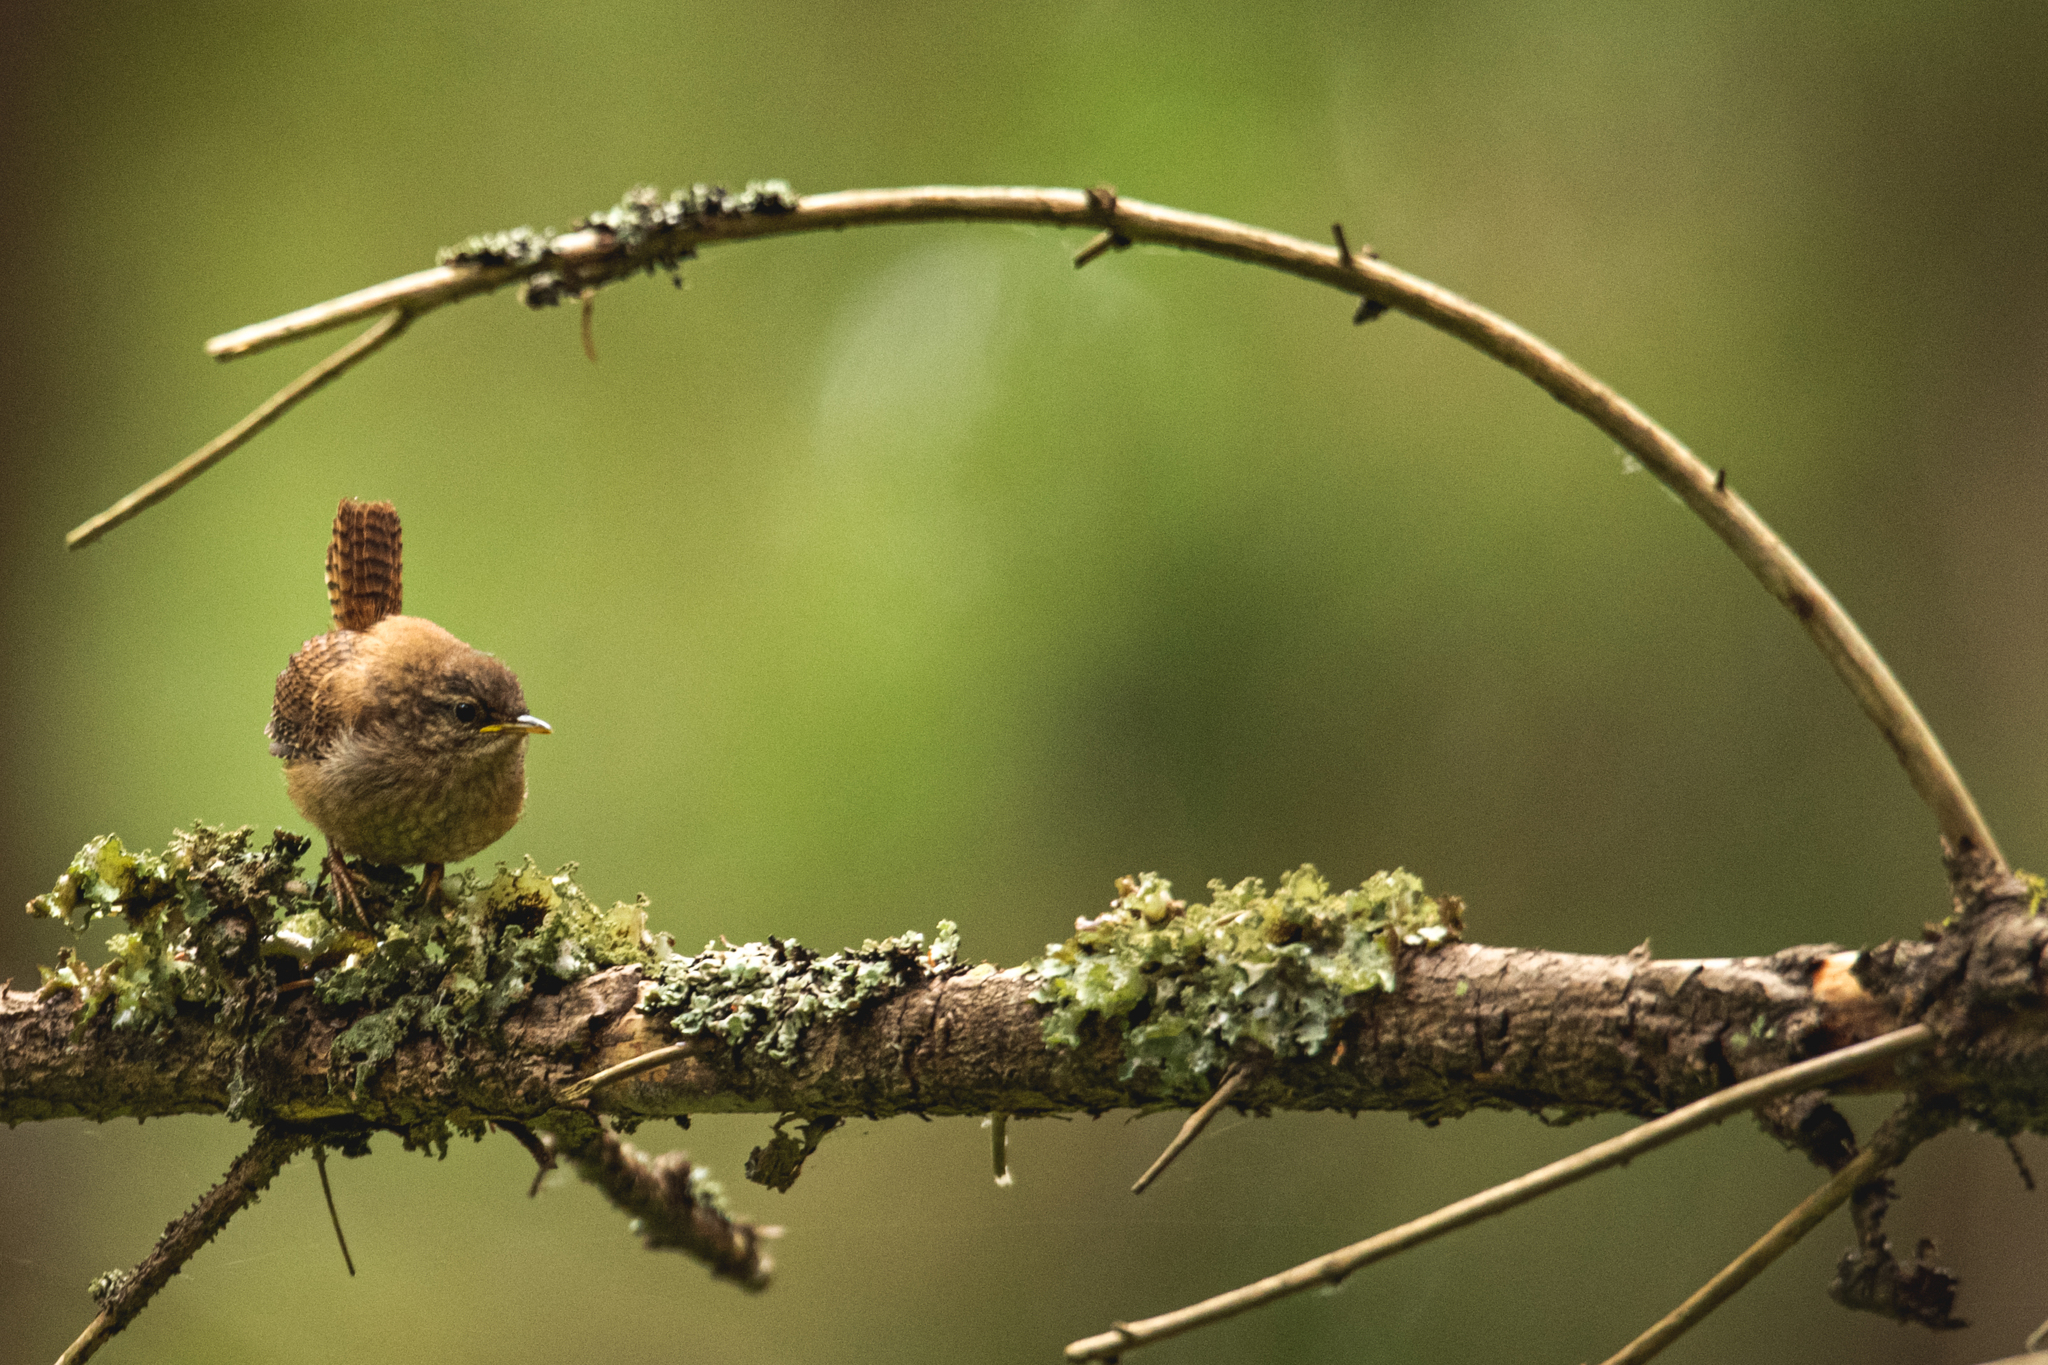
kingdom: Animalia
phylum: Chordata
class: Aves
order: Passeriformes
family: Troglodytidae
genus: Troglodytes
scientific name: Troglodytes troglodytes
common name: Eurasian wren
